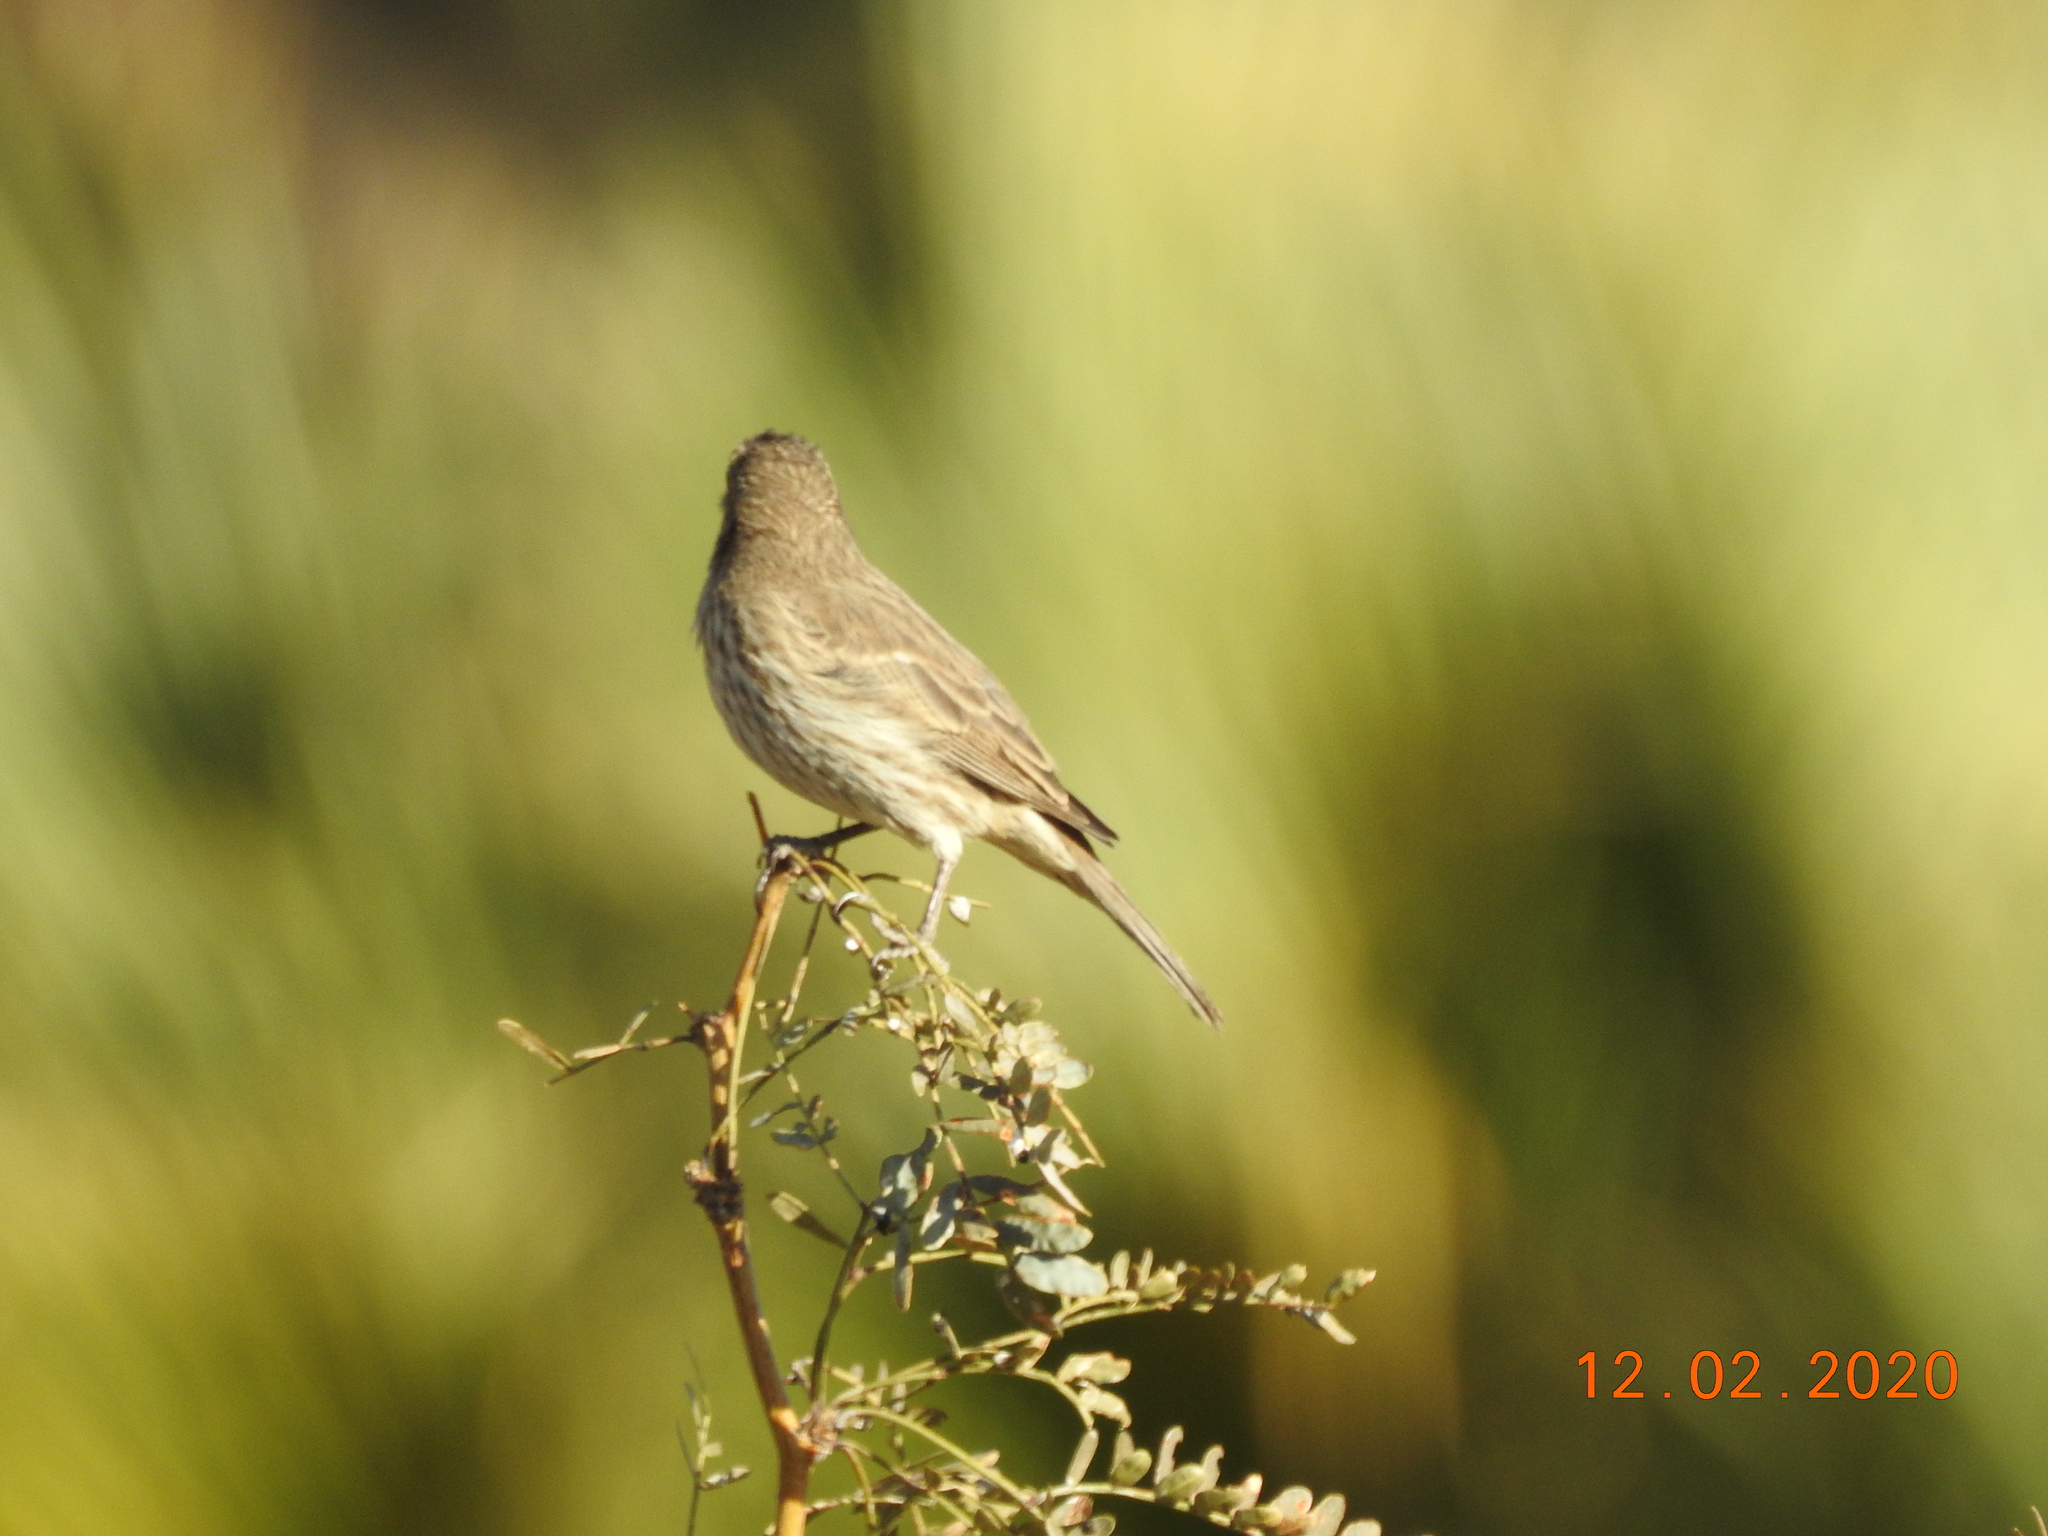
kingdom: Animalia
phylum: Chordata
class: Aves
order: Passeriformes
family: Fringillidae
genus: Haemorhous
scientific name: Haemorhous mexicanus
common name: House finch
